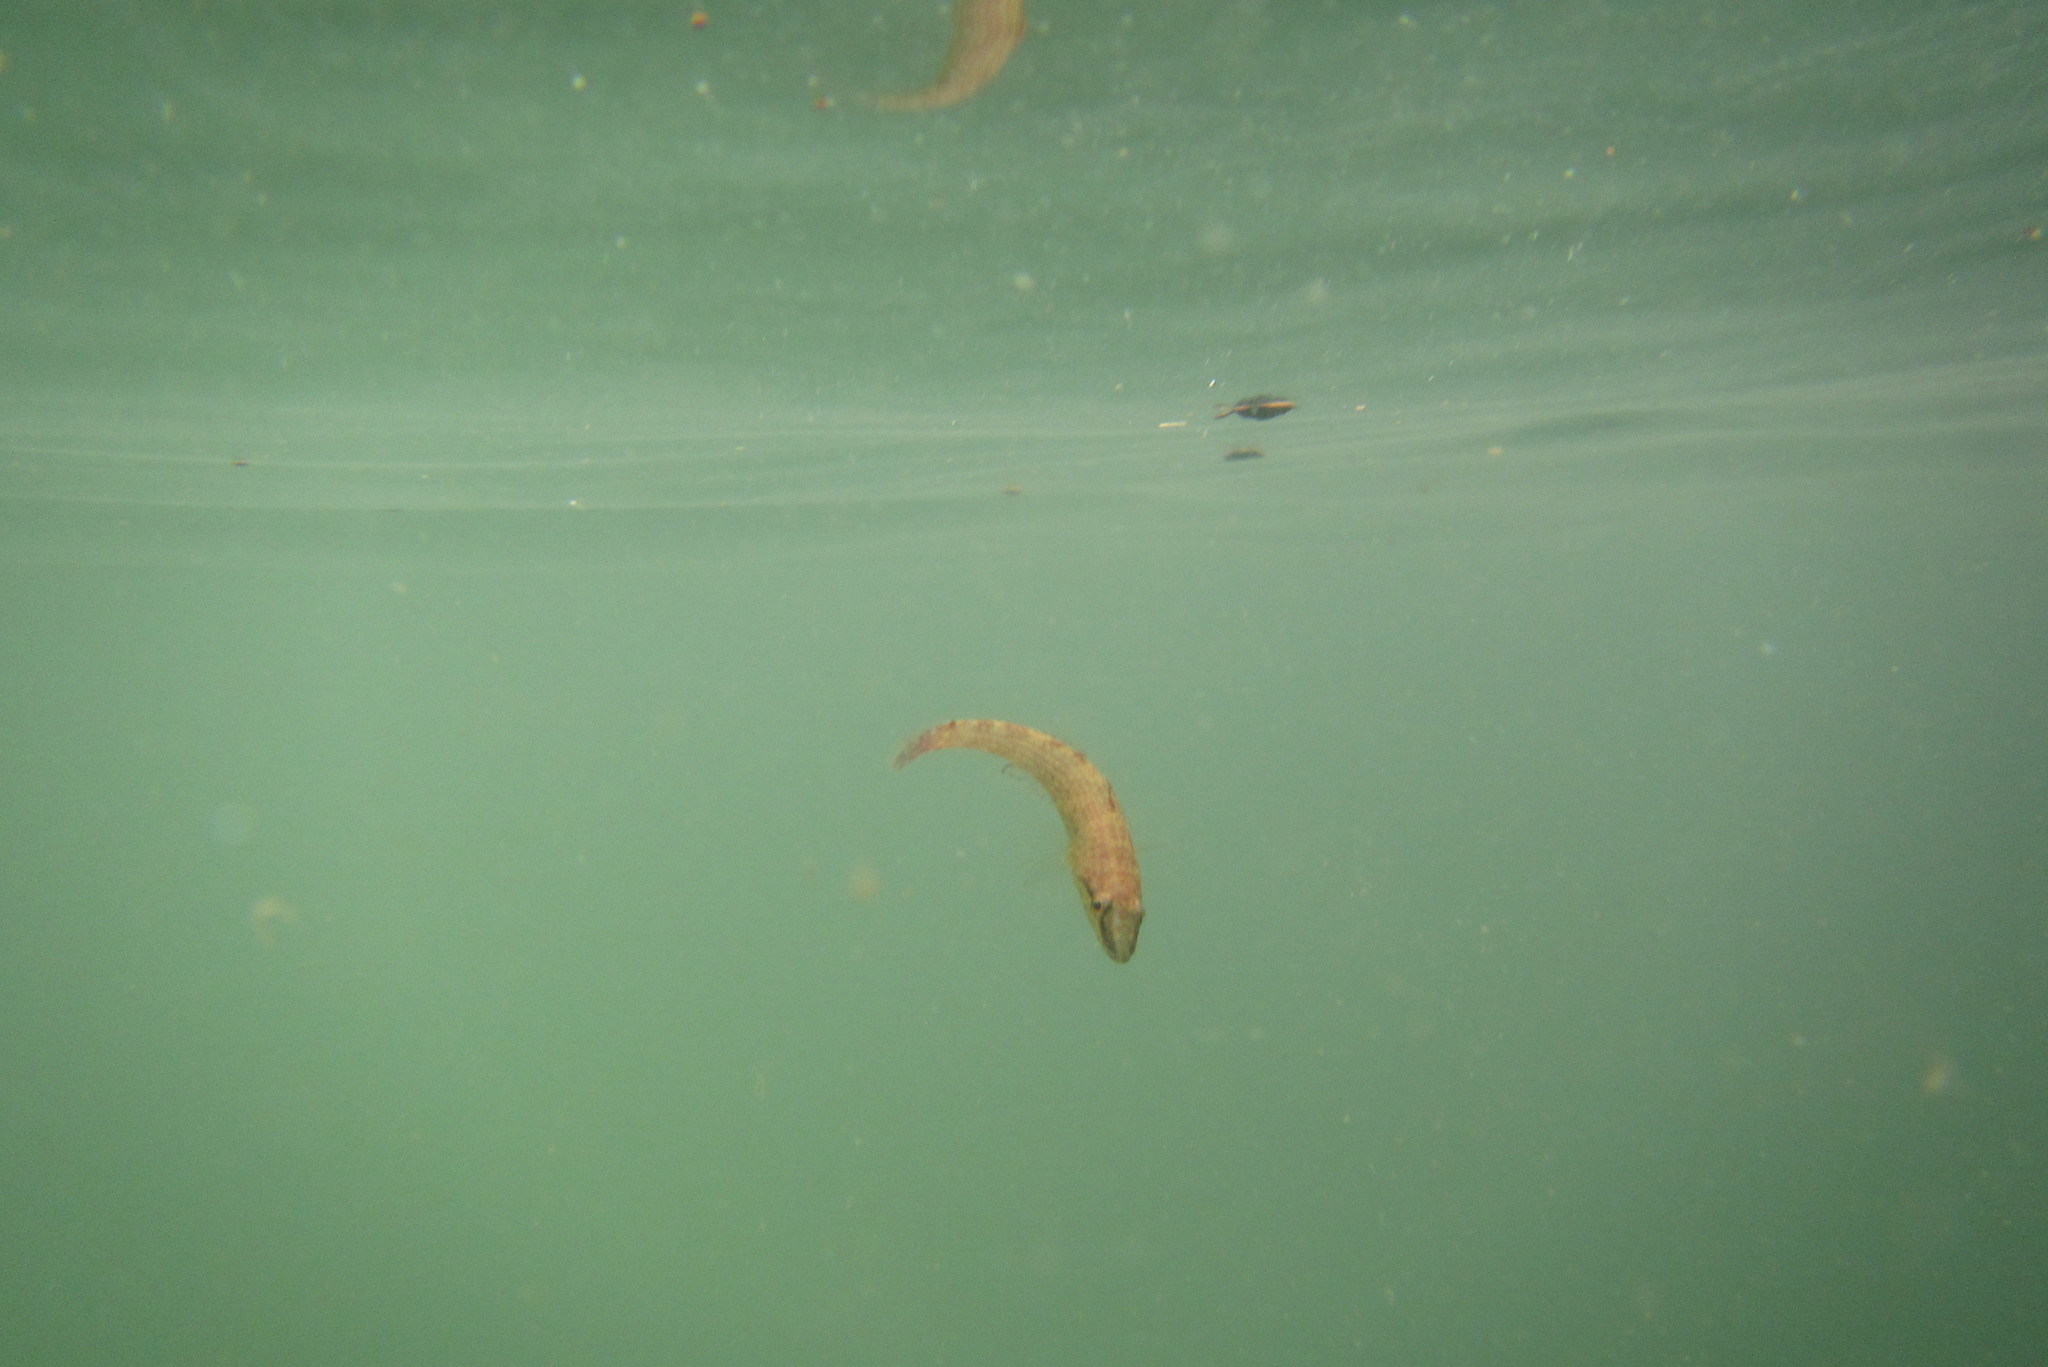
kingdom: Animalia
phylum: Chordata
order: Perciformes
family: Eleotridae
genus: Butis
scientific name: Butis butis
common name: Duckbill sleeper
